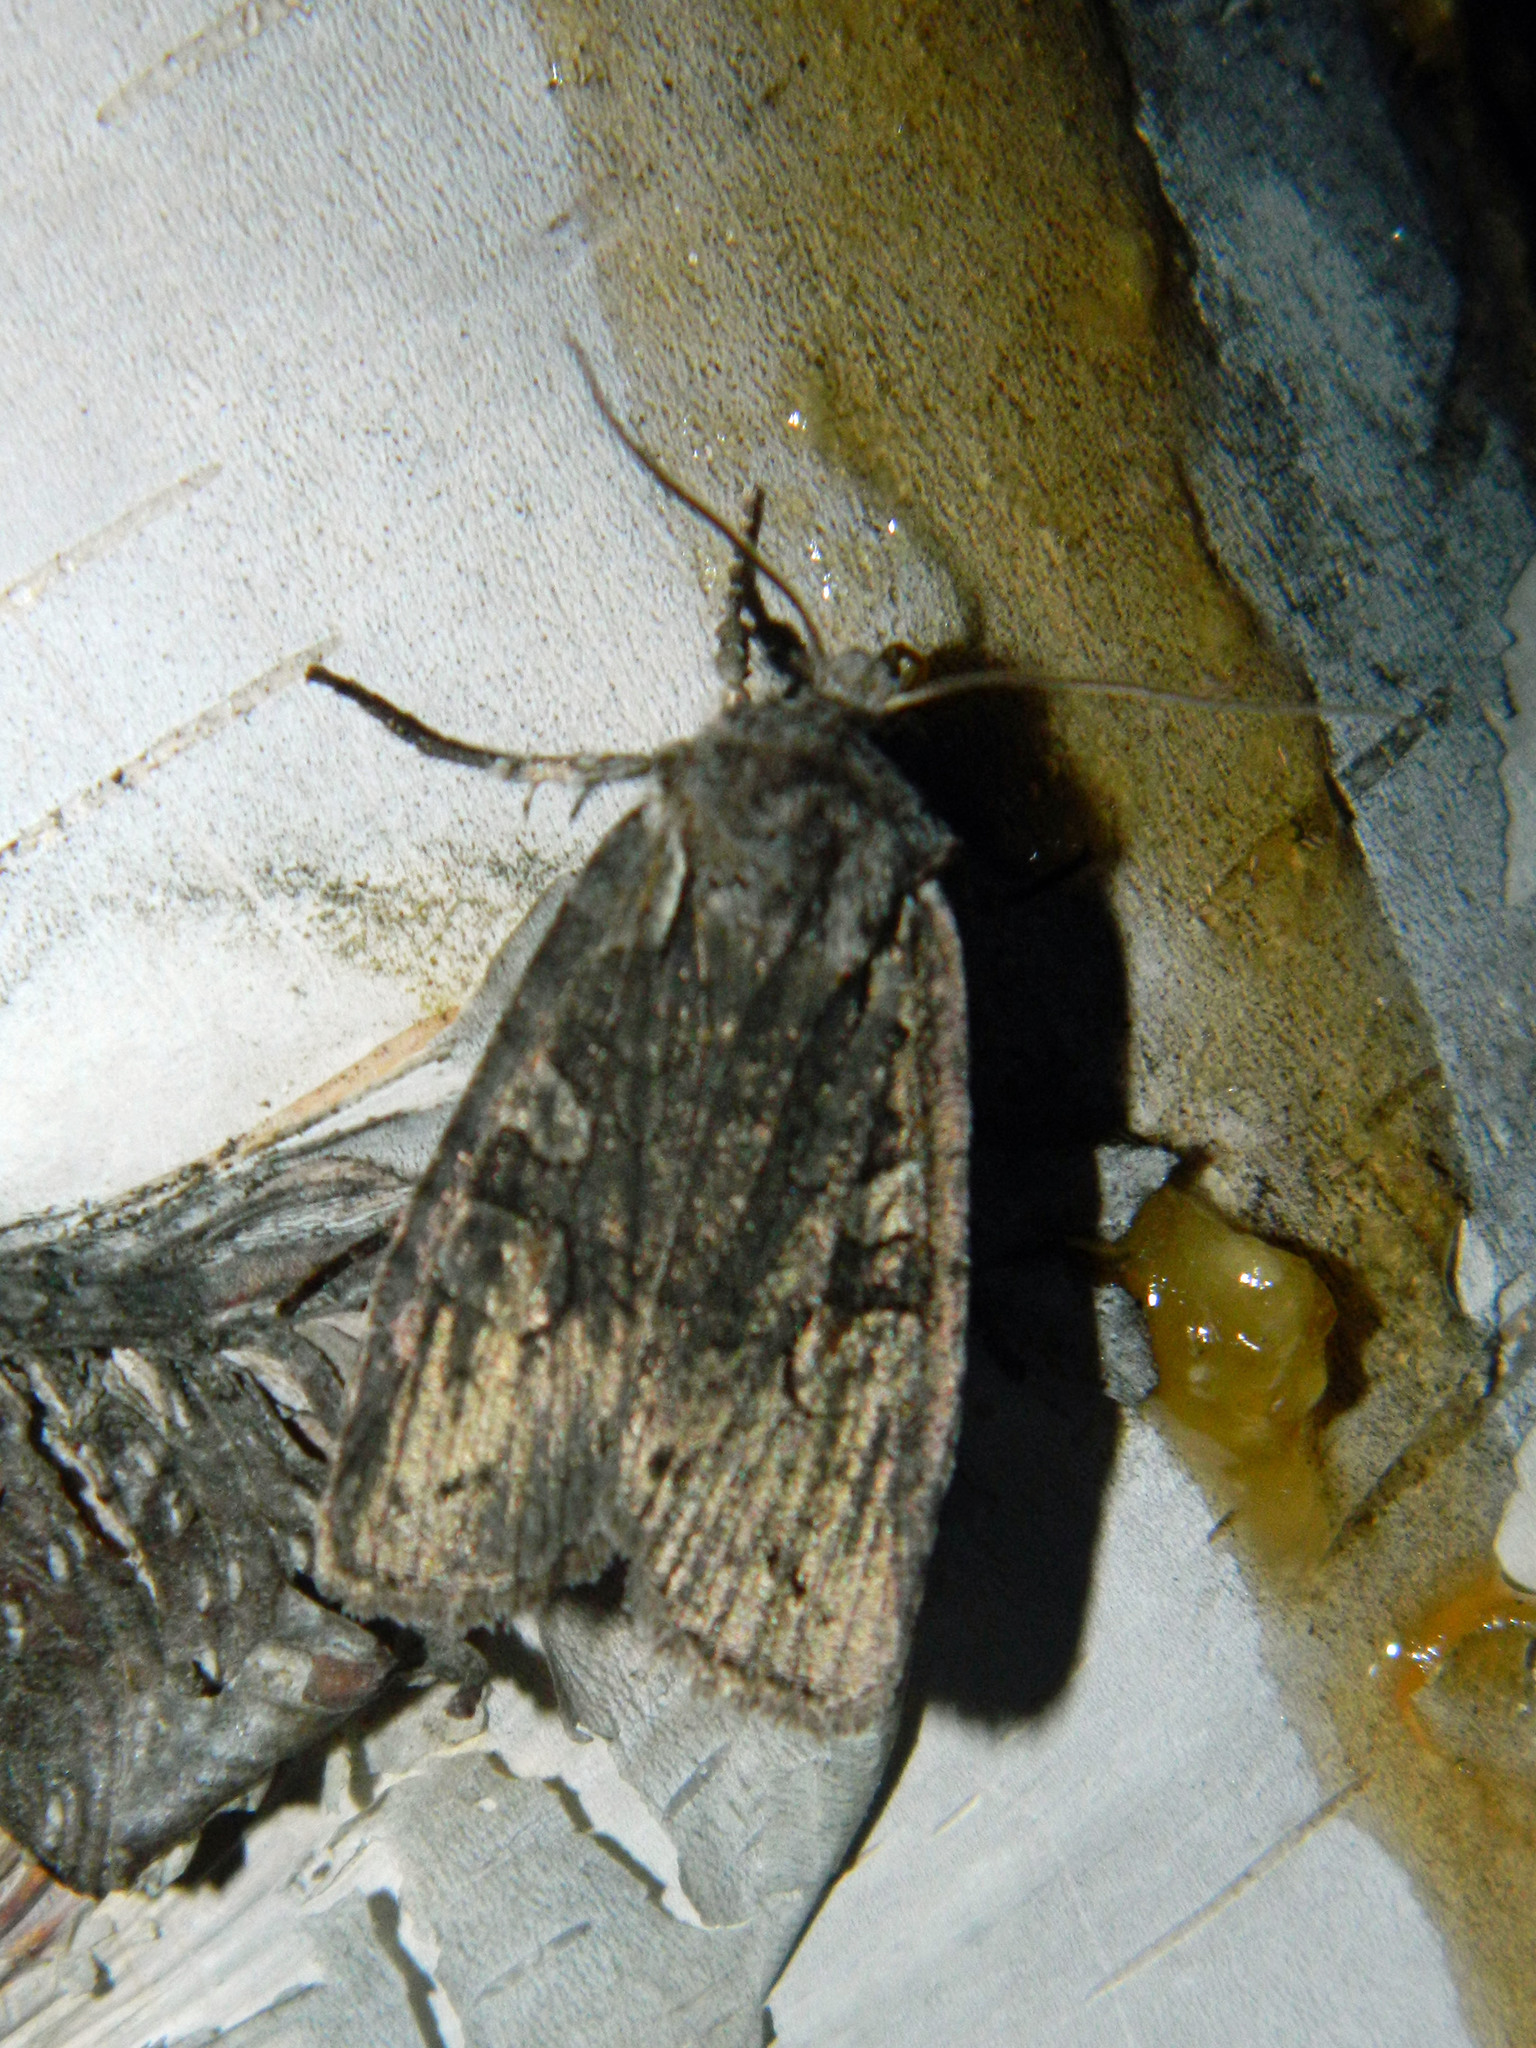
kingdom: Animalia
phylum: Arthropoda
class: Insecta
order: Lepidoptera
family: Noctuidae
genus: Lithophane
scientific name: Lithophane baileyi
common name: Bailey's pinion moth
